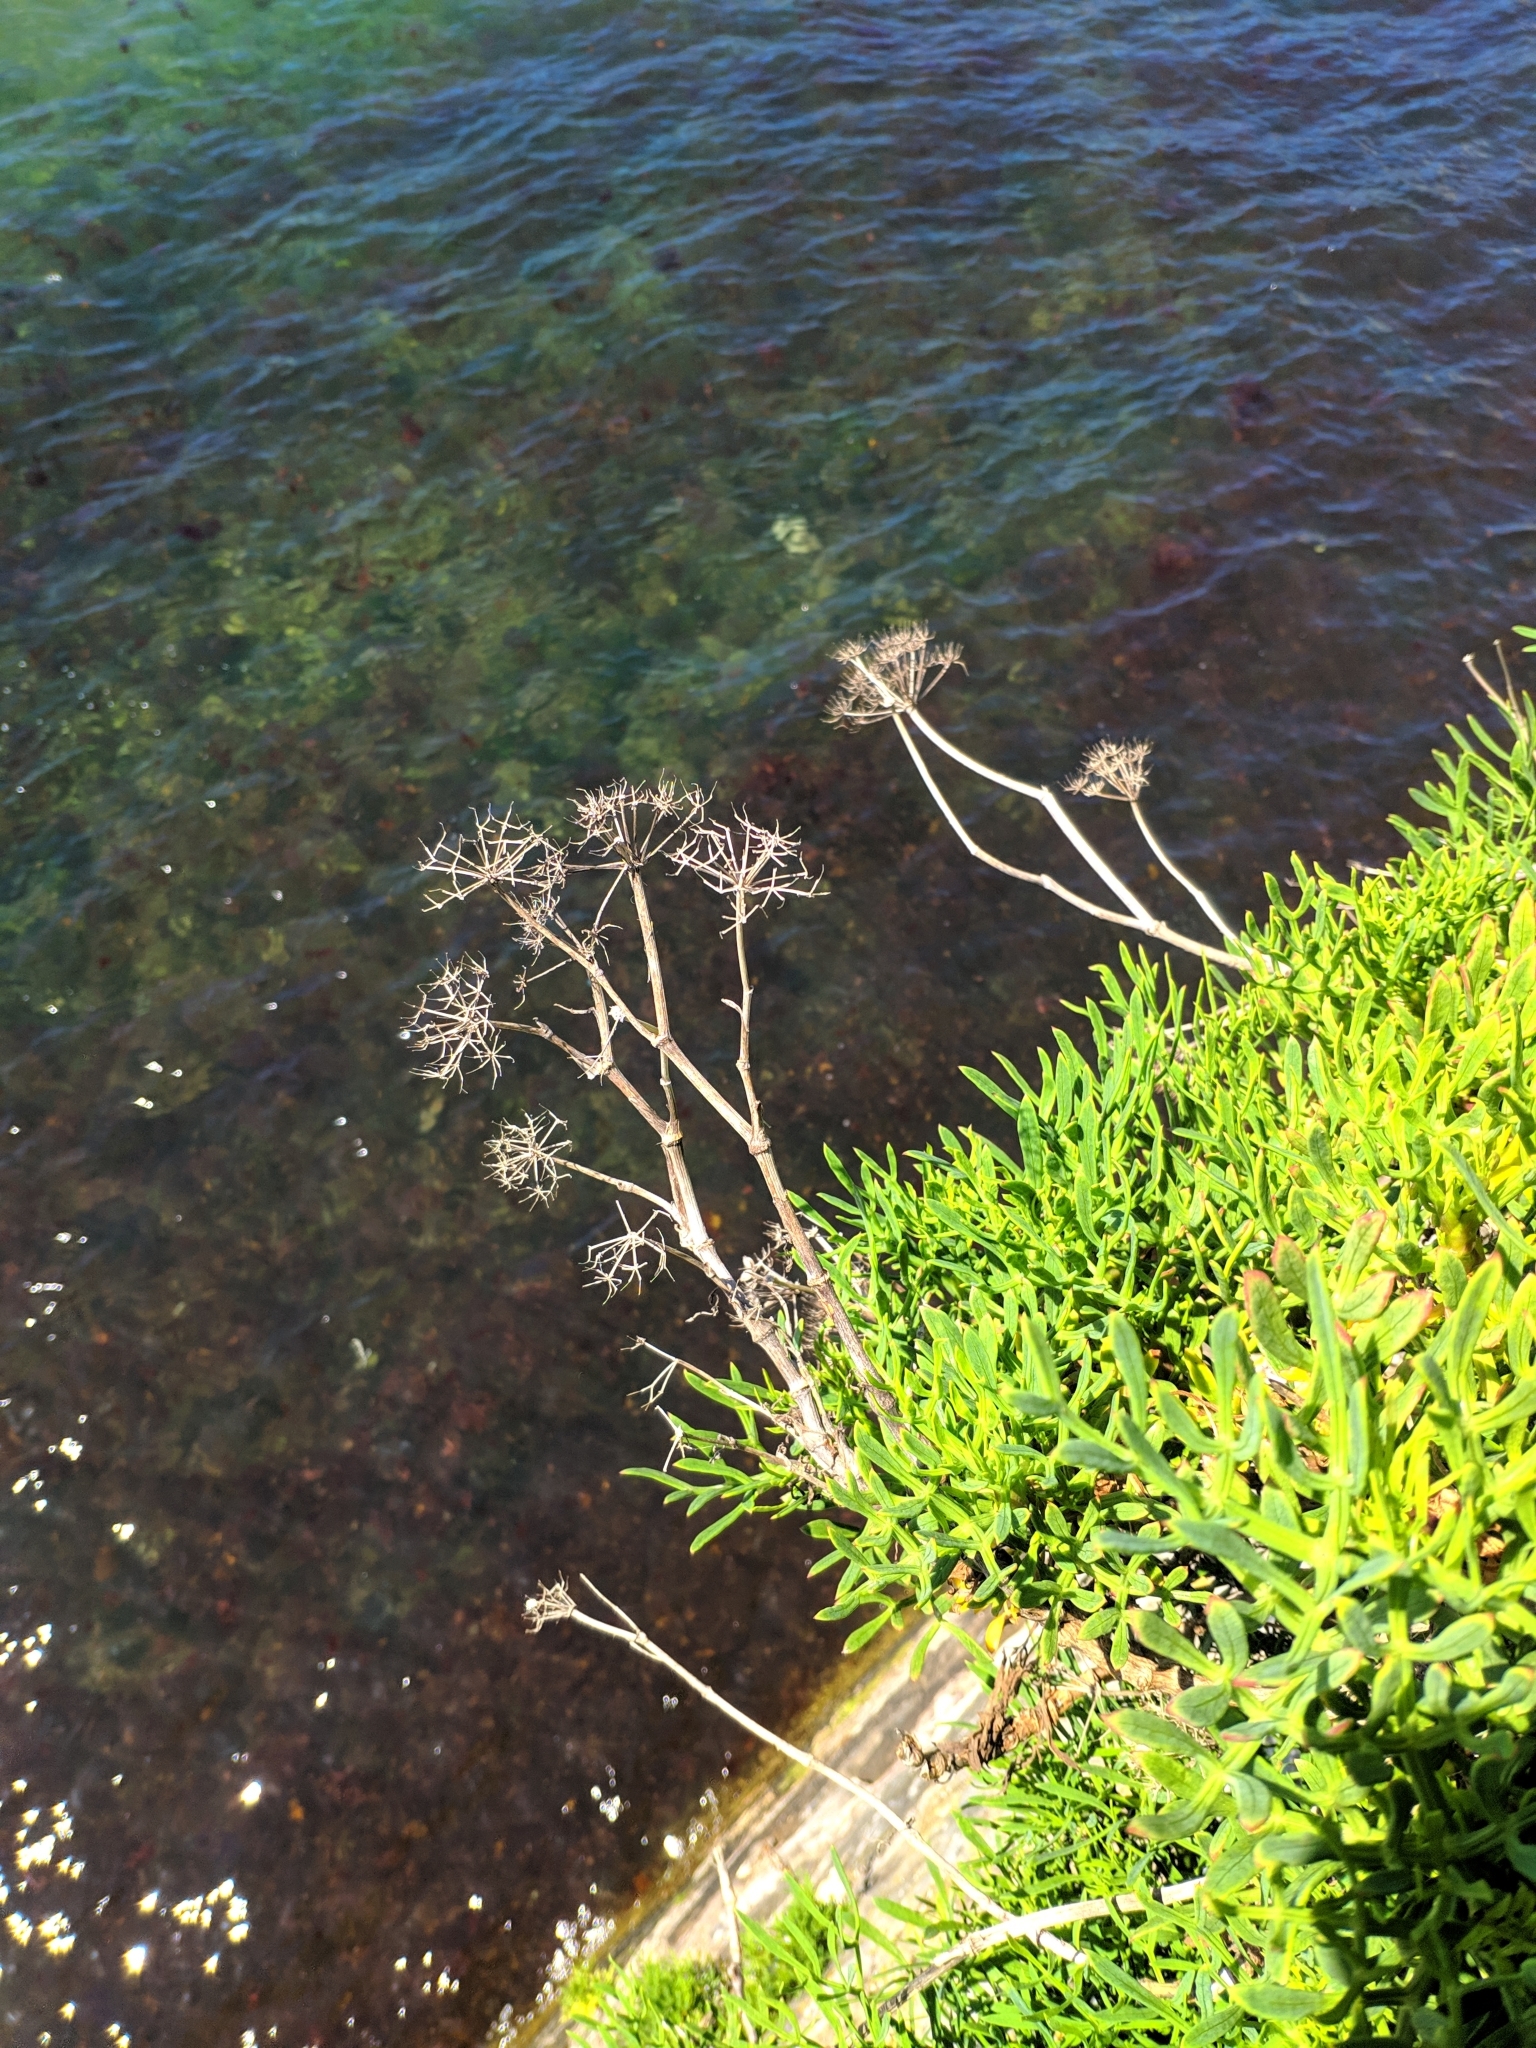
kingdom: Plantae
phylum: Tracheophyta
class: Magnoliopsida
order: Apiales
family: Apiaceae
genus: Crithmum
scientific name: Crithmum maritimum
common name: Rock samphire
